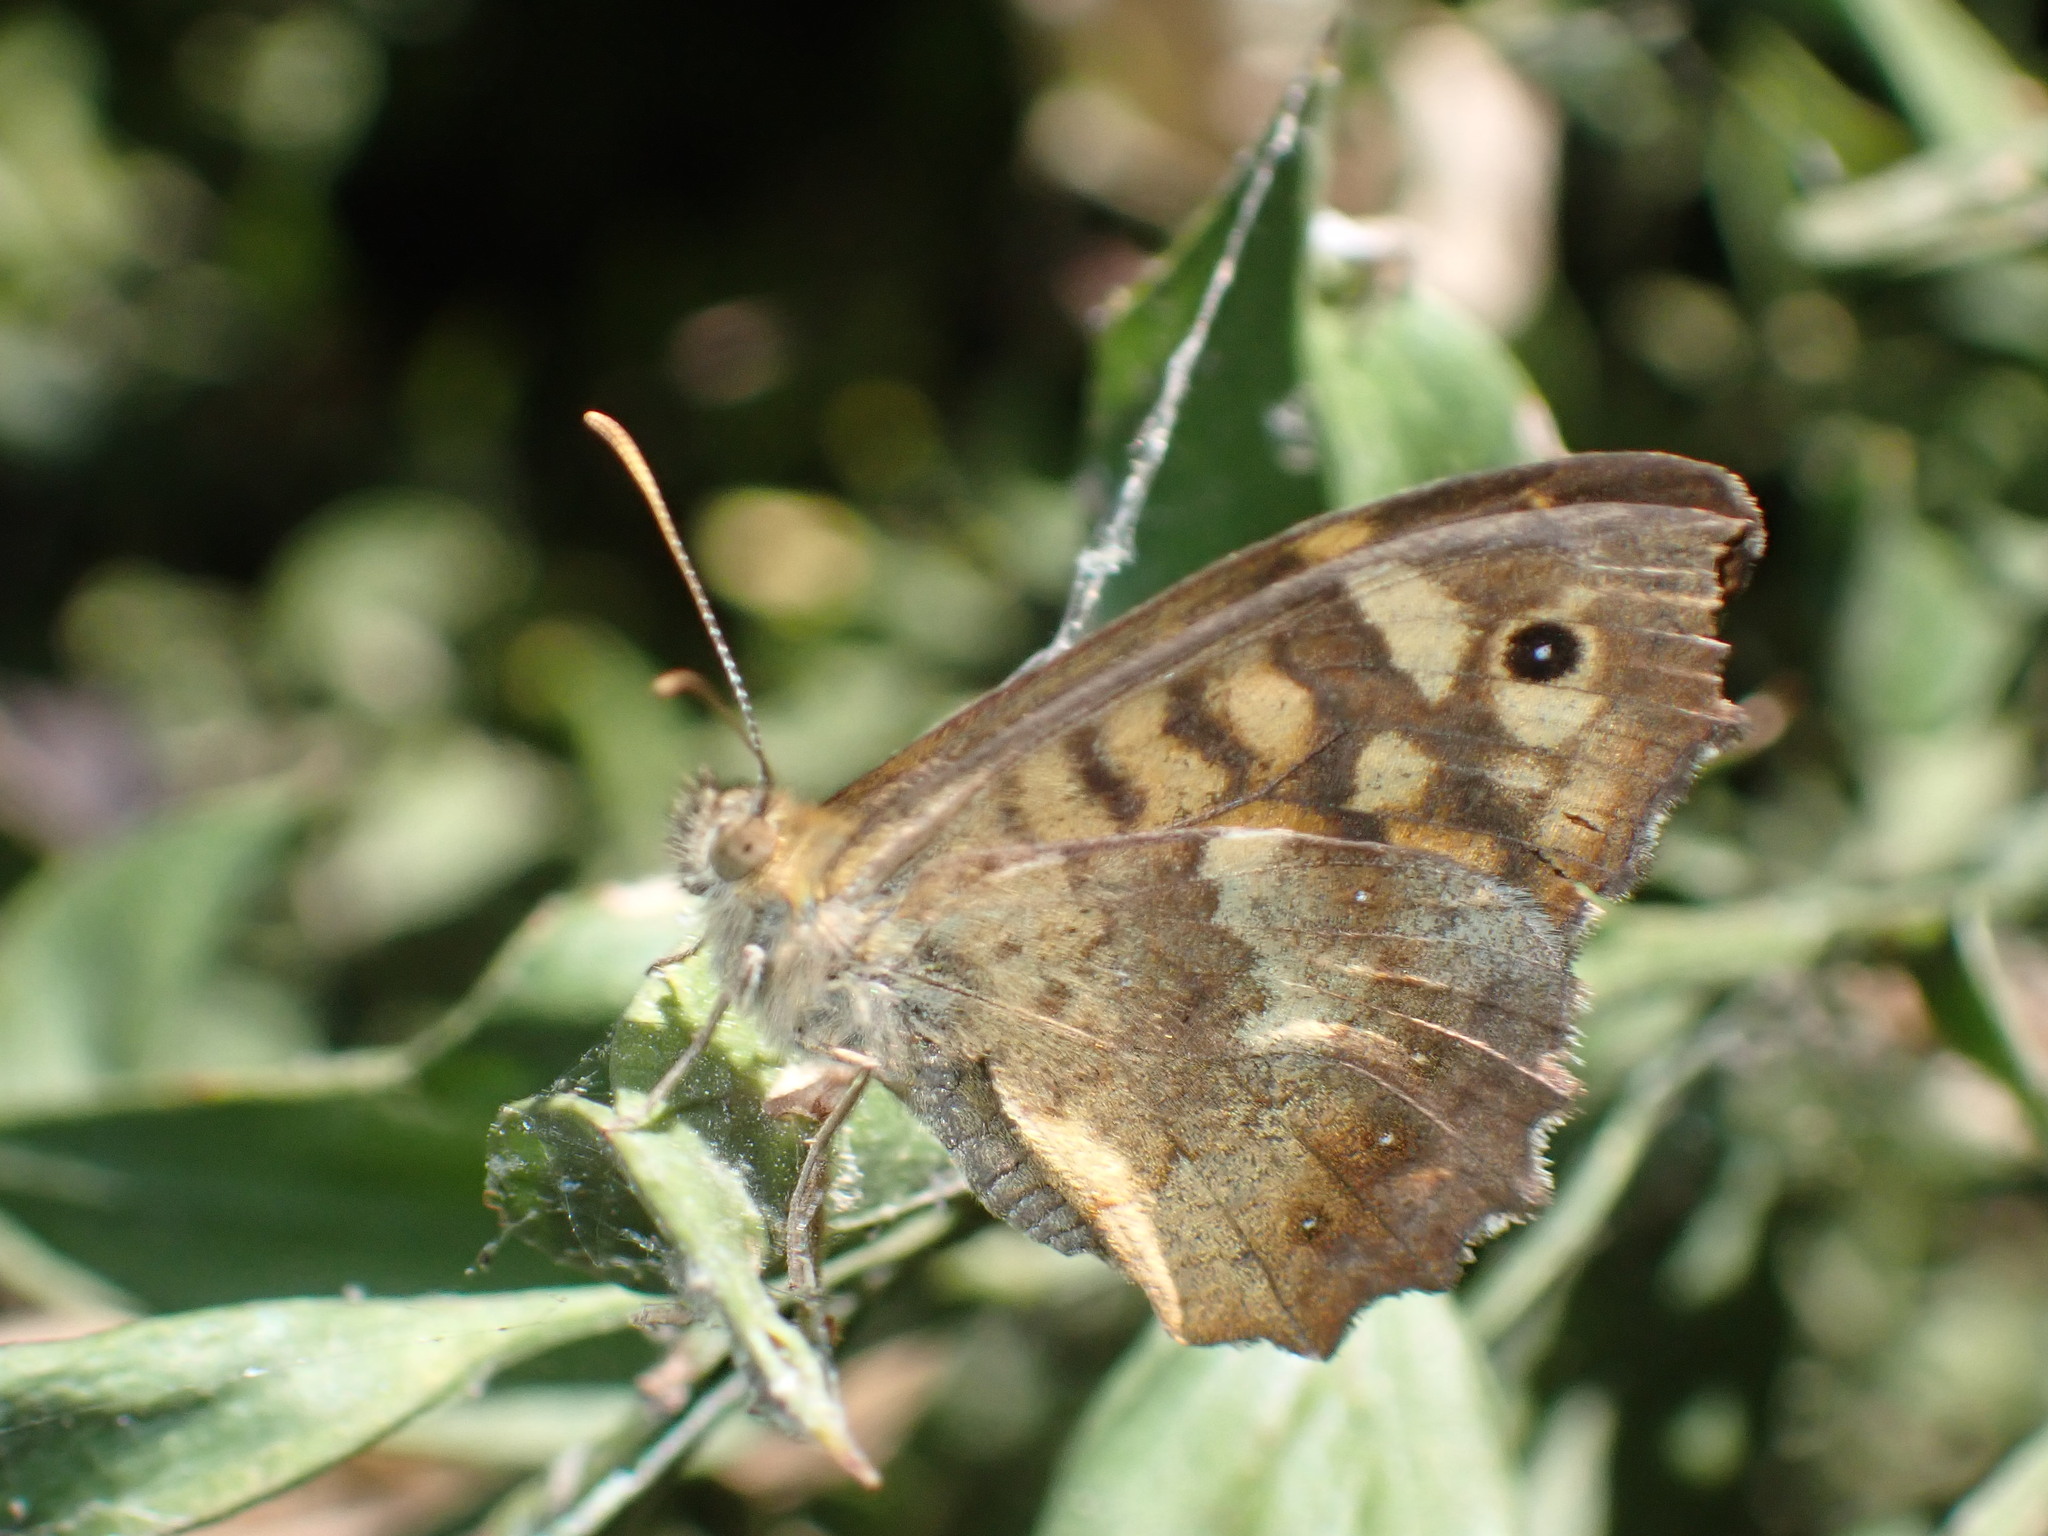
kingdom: Animalia
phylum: Arthropoda
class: Insecta
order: Lepidoptera
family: Nymphalidae
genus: Pararge
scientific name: Pararge aegeria
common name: Speckled wood
